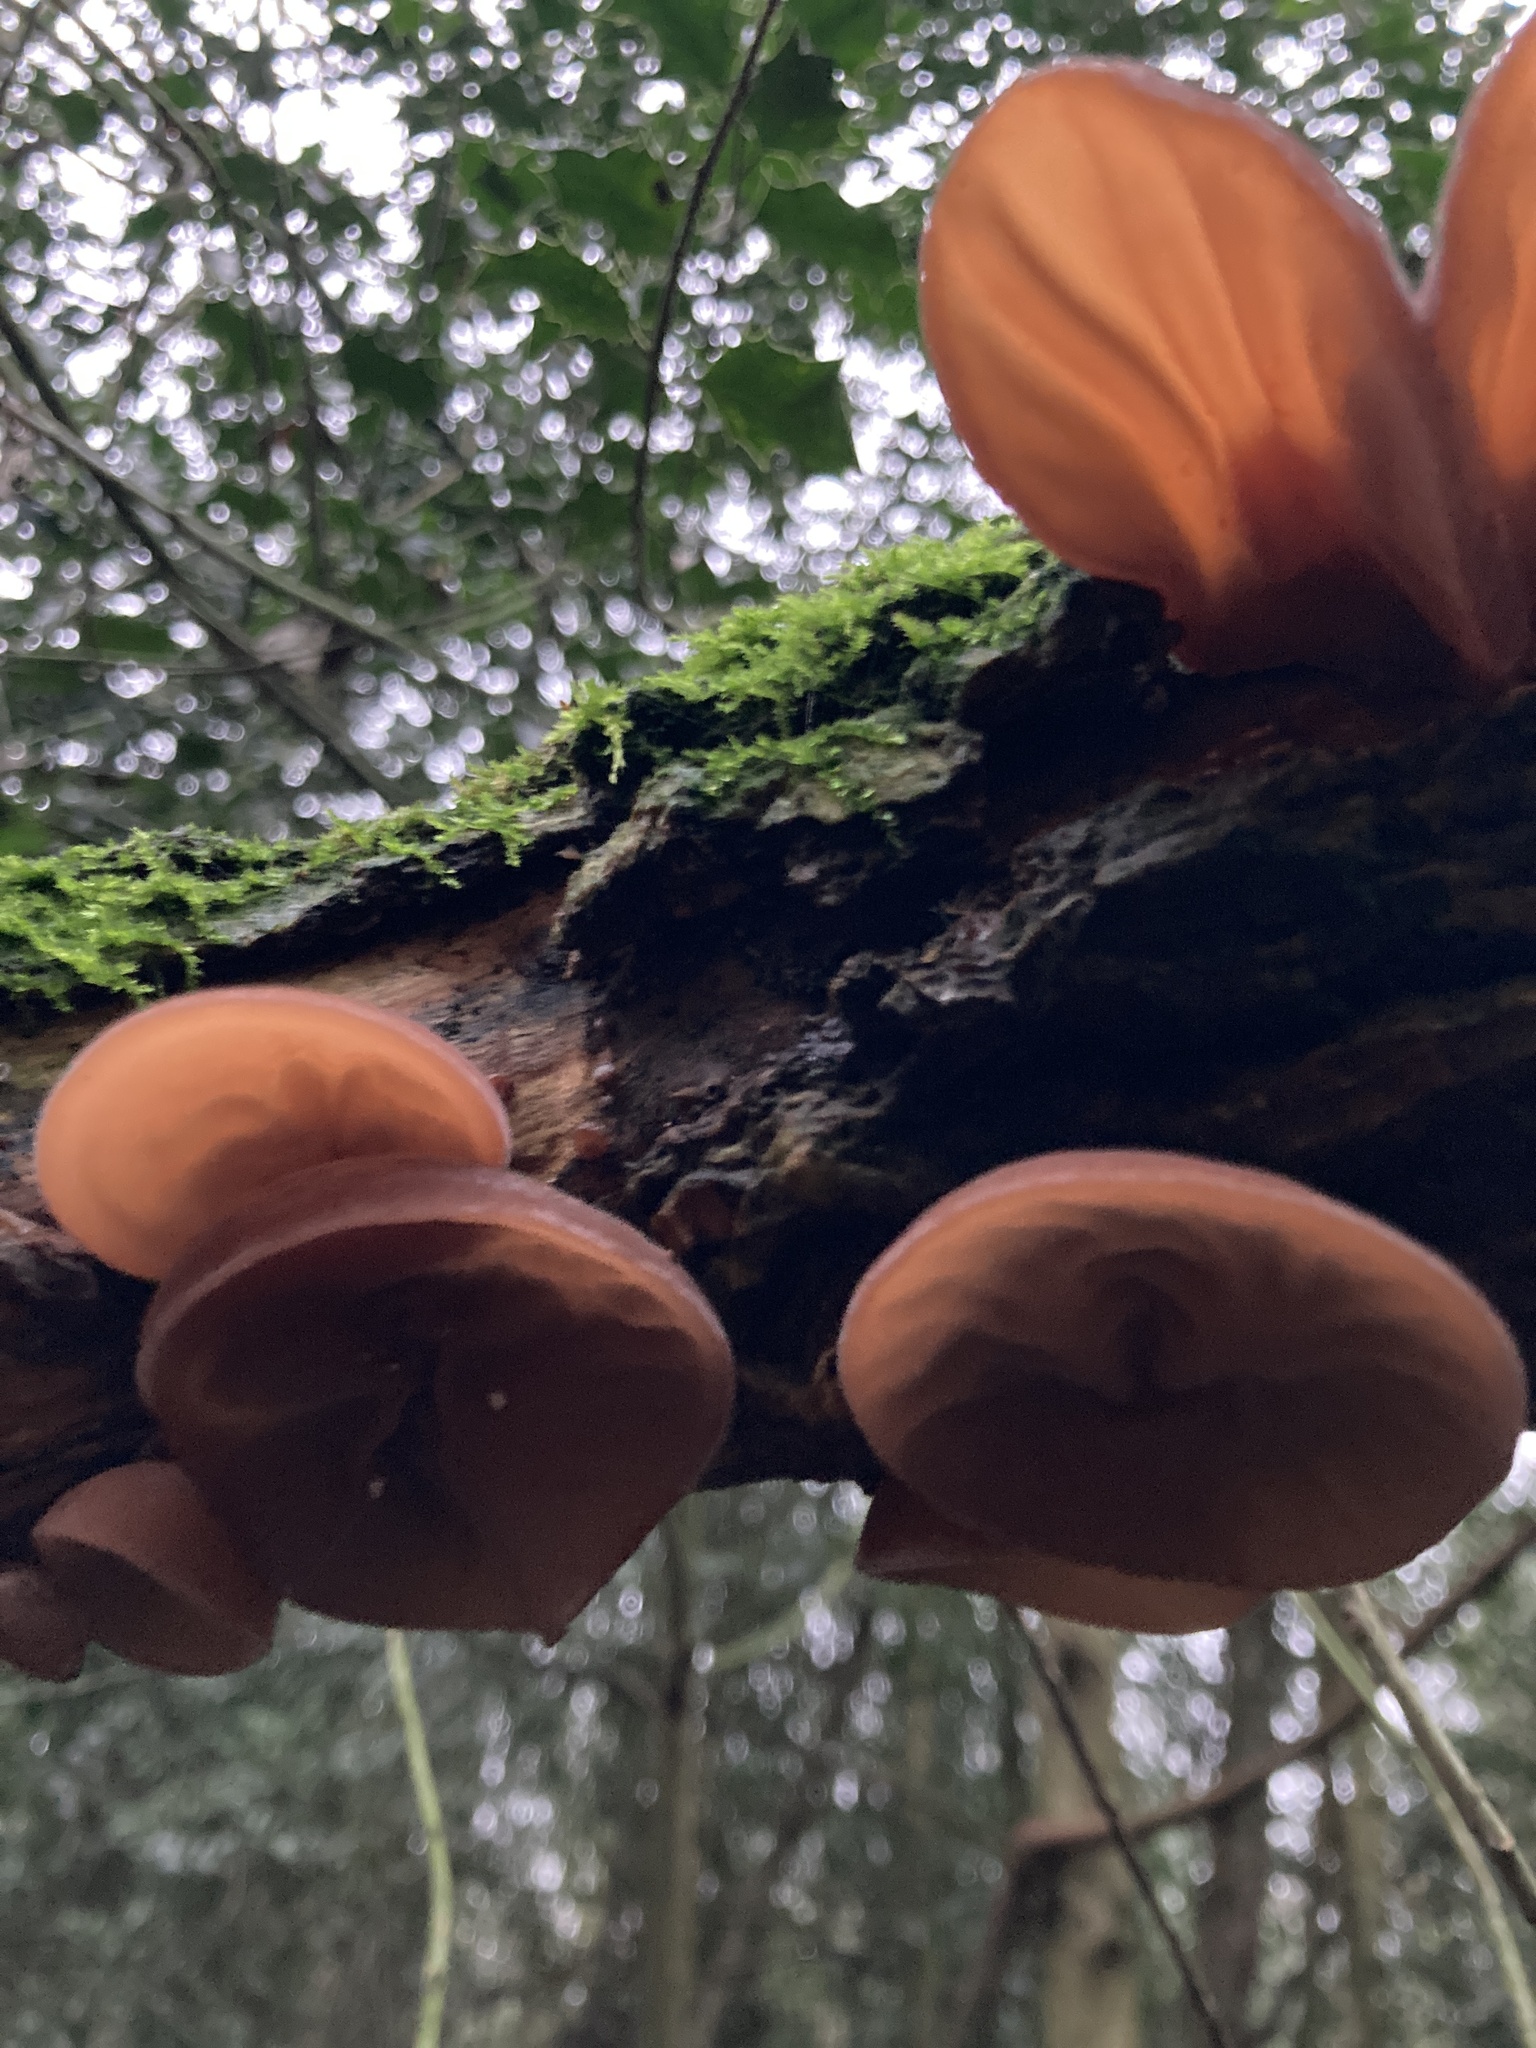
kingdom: Fungi
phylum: Basidiomycota
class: Agaricomycetes
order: Auriculariales
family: Auriculariaceae
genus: Auricularia
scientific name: Auricularia auricula-judae
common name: Jelly ear
